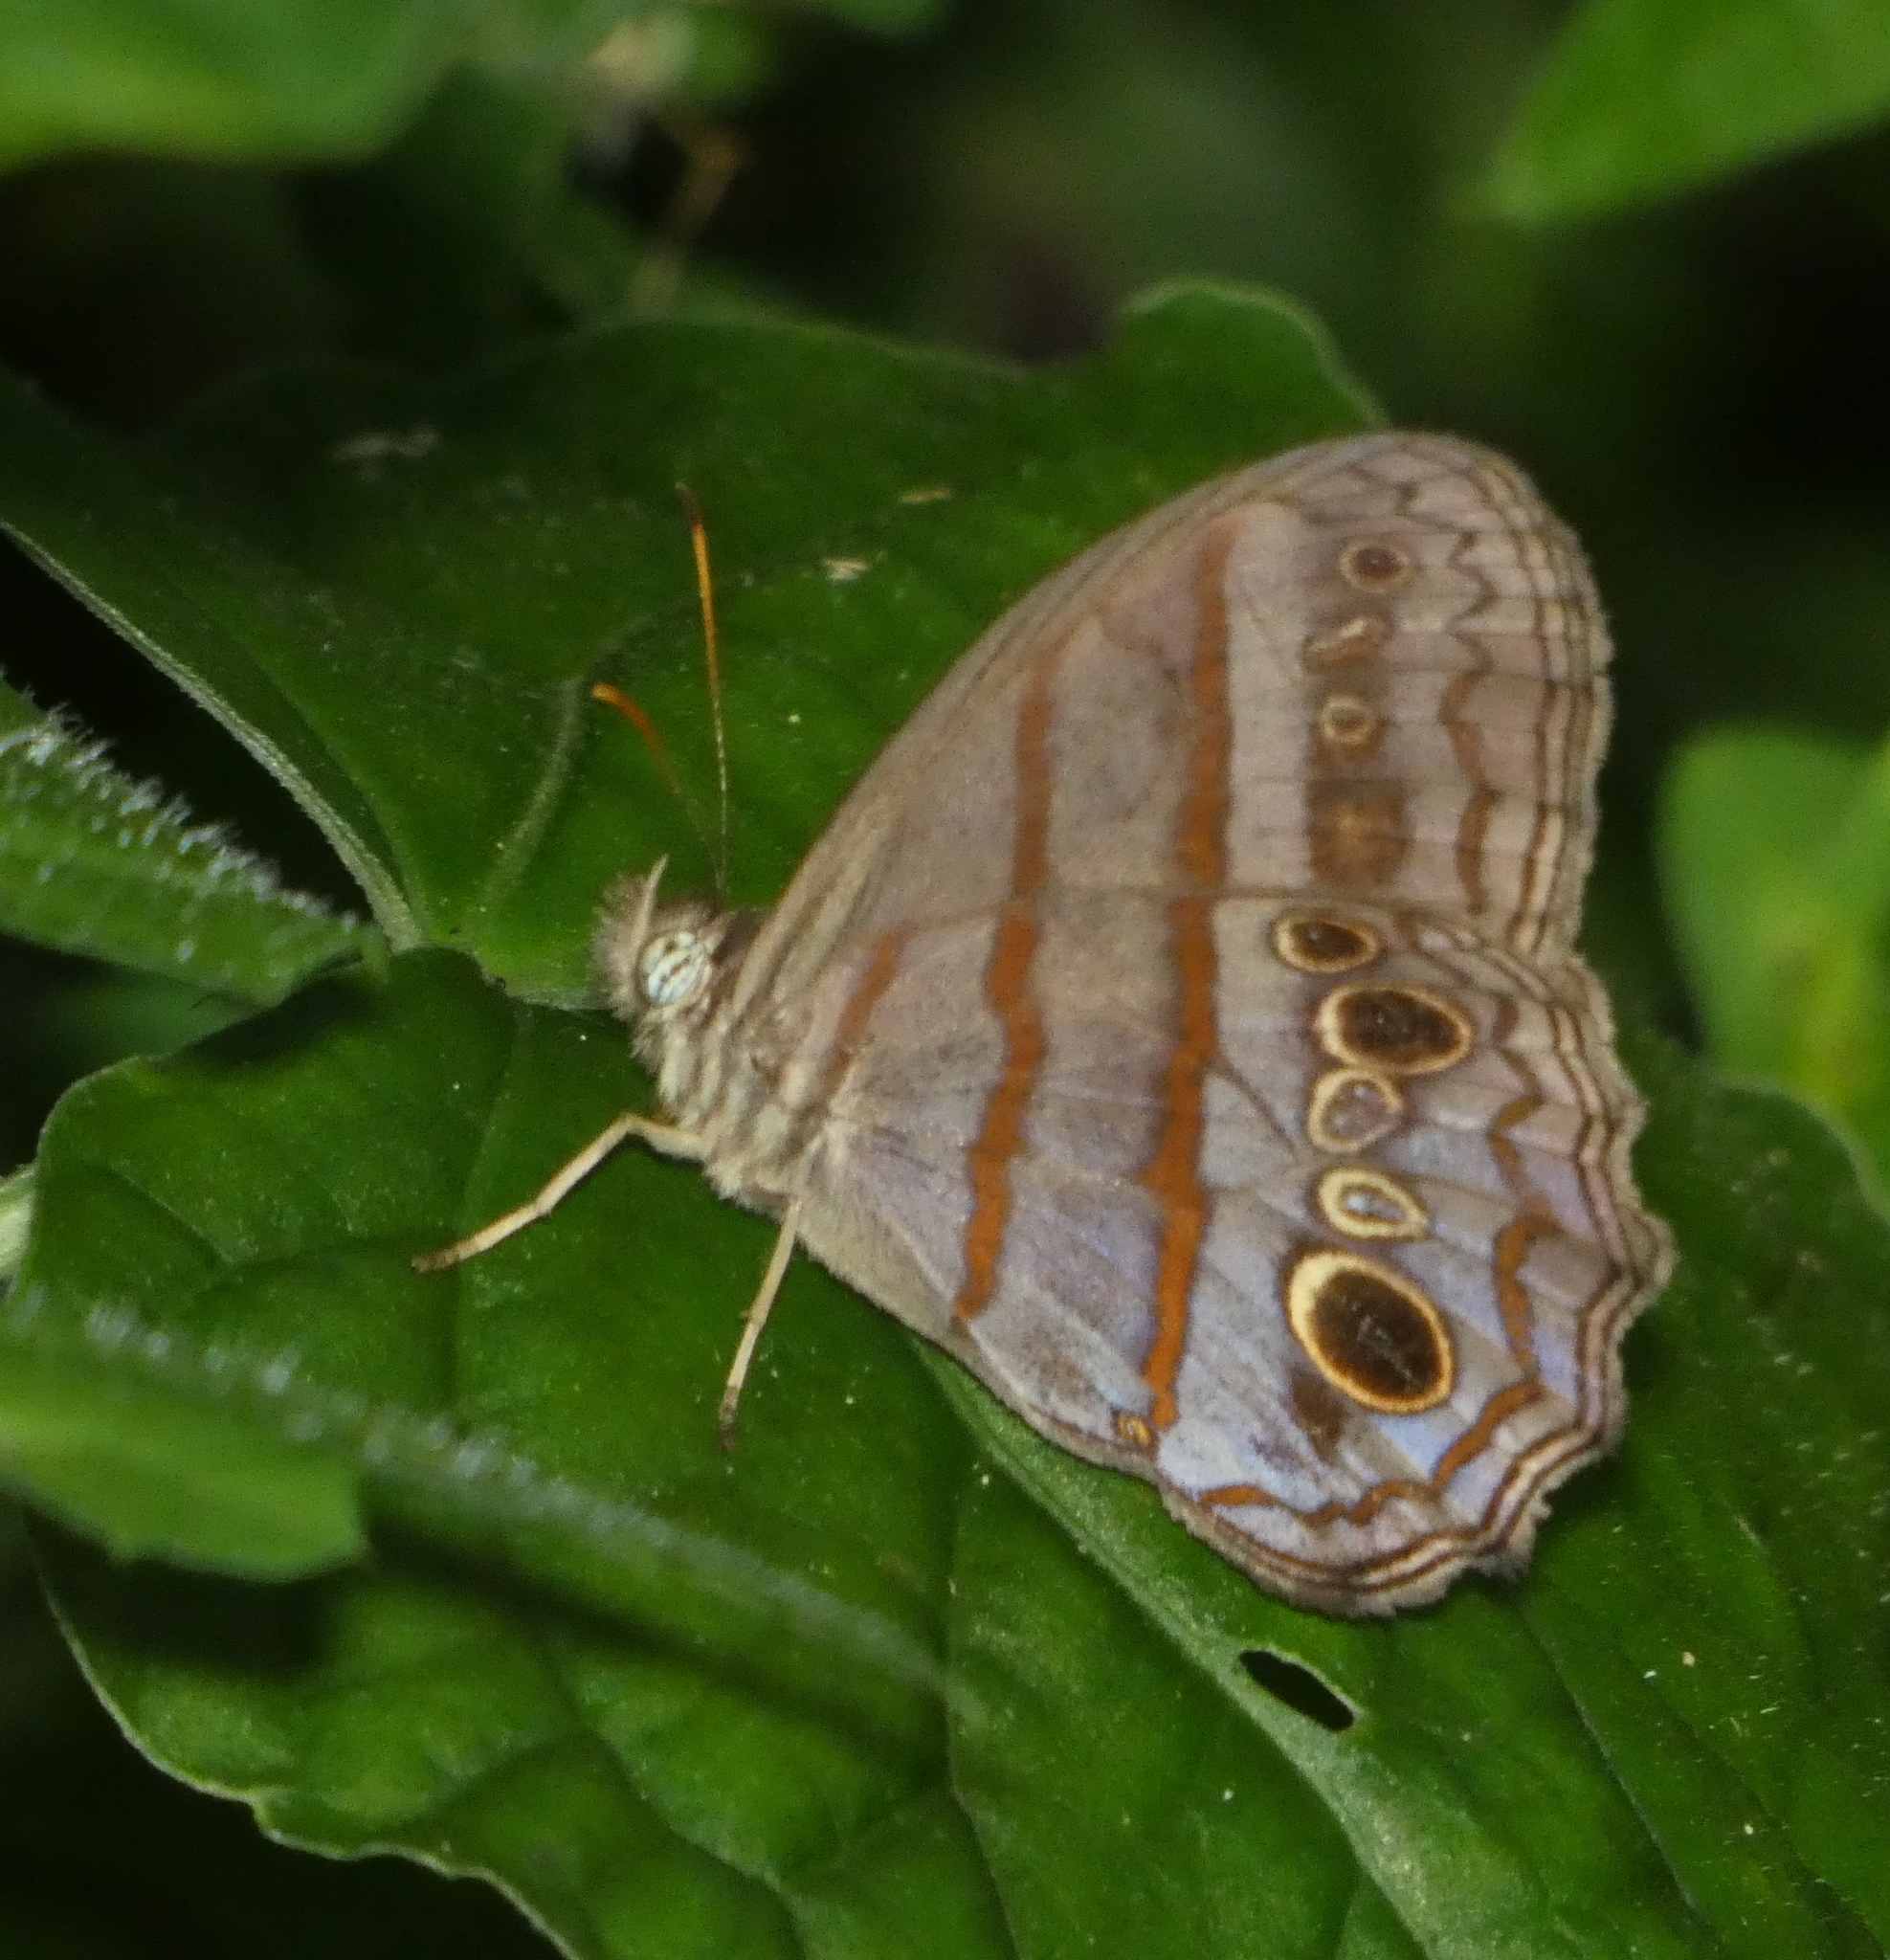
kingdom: Animalia
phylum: Arthropoda
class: Insecta
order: Lepidoptera
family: Nymphalidae
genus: Magneuptychia
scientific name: Magneuptychia libye
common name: Blue-gray satyr
